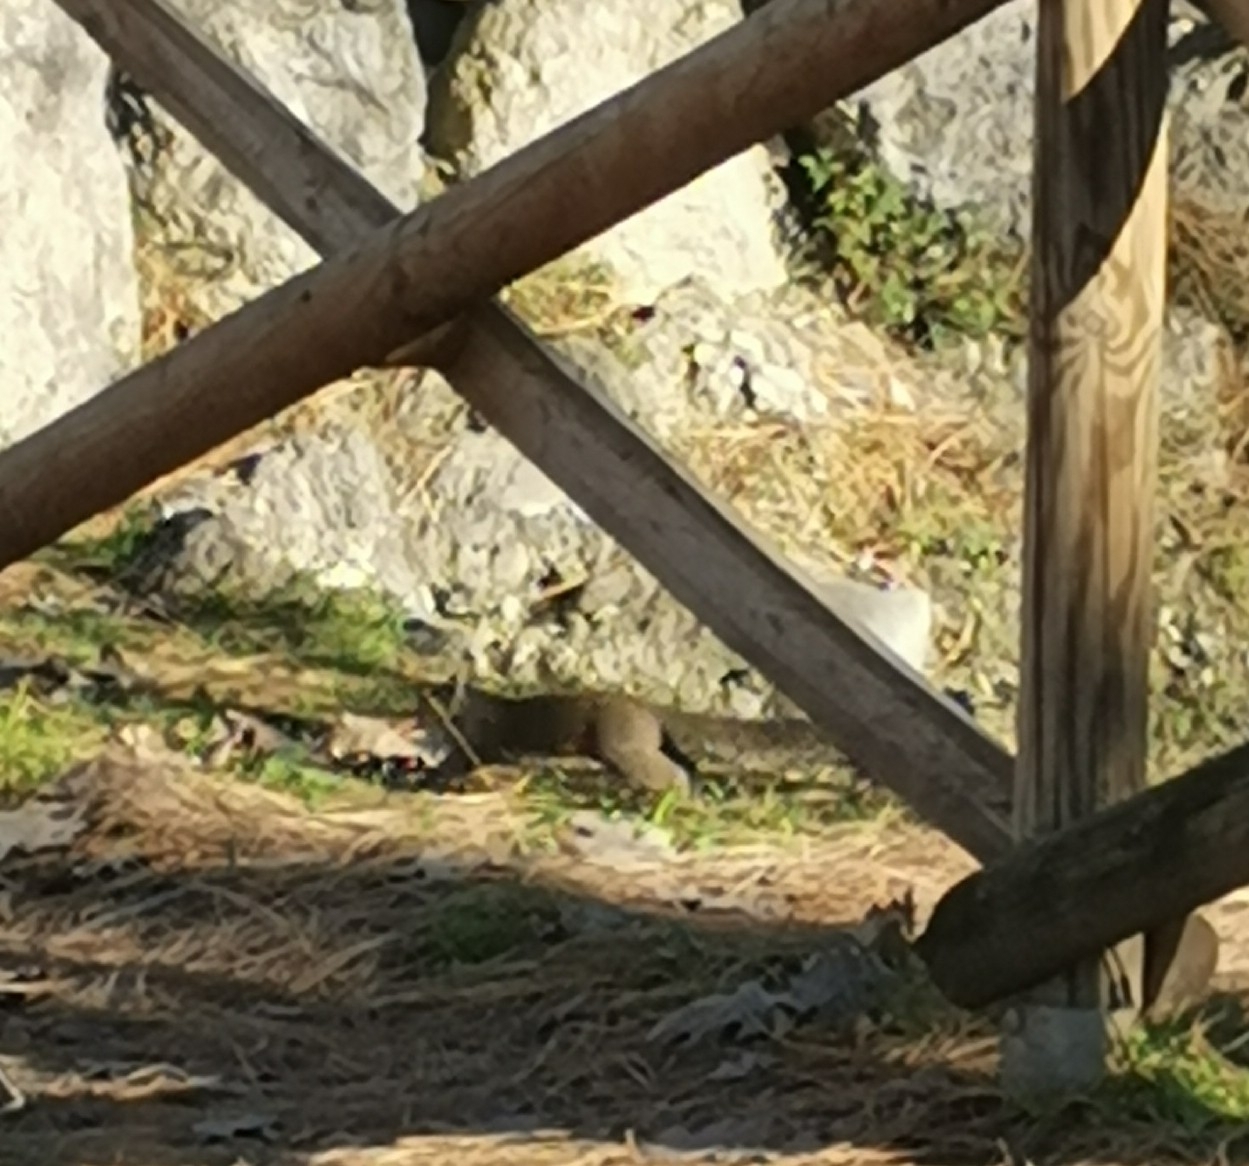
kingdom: Animalia
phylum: Chordata
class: Mammalia
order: Rodentia
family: Sciuridae
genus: Sciurus
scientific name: Sciurus carolinensis
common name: Eastern gray squirrel
